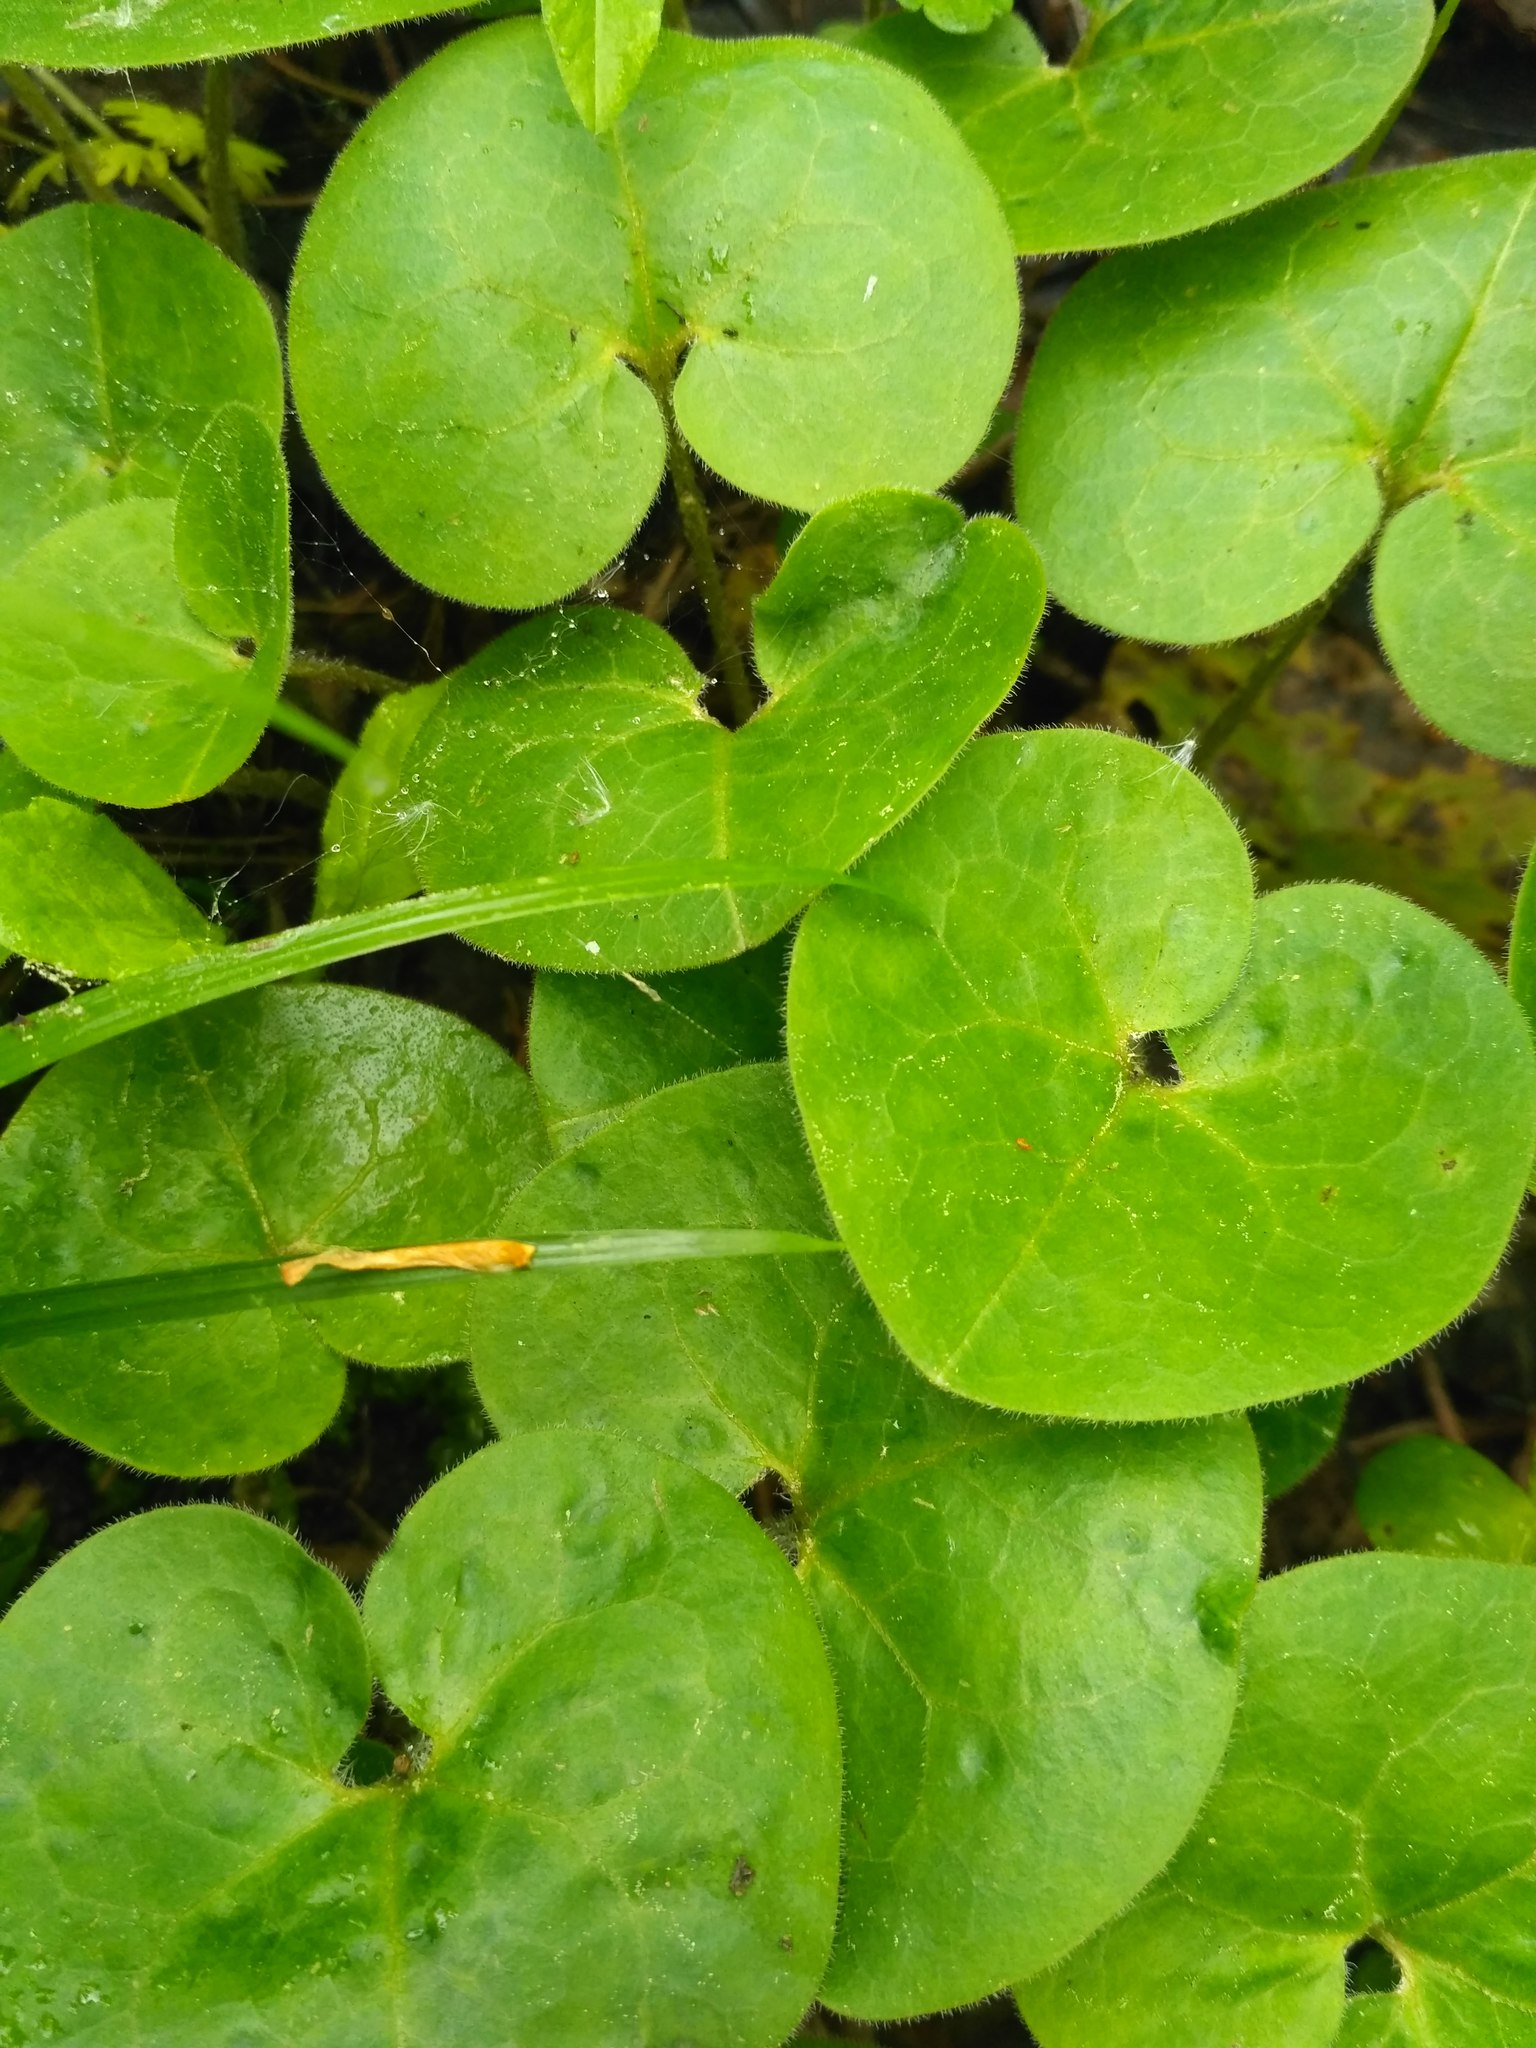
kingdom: Plantae
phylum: Tracheophyta
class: Magnoliopsida
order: Piperales
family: Aristolochiaceae
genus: Asarum
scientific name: Asarum europaeum
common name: Asarabacca
